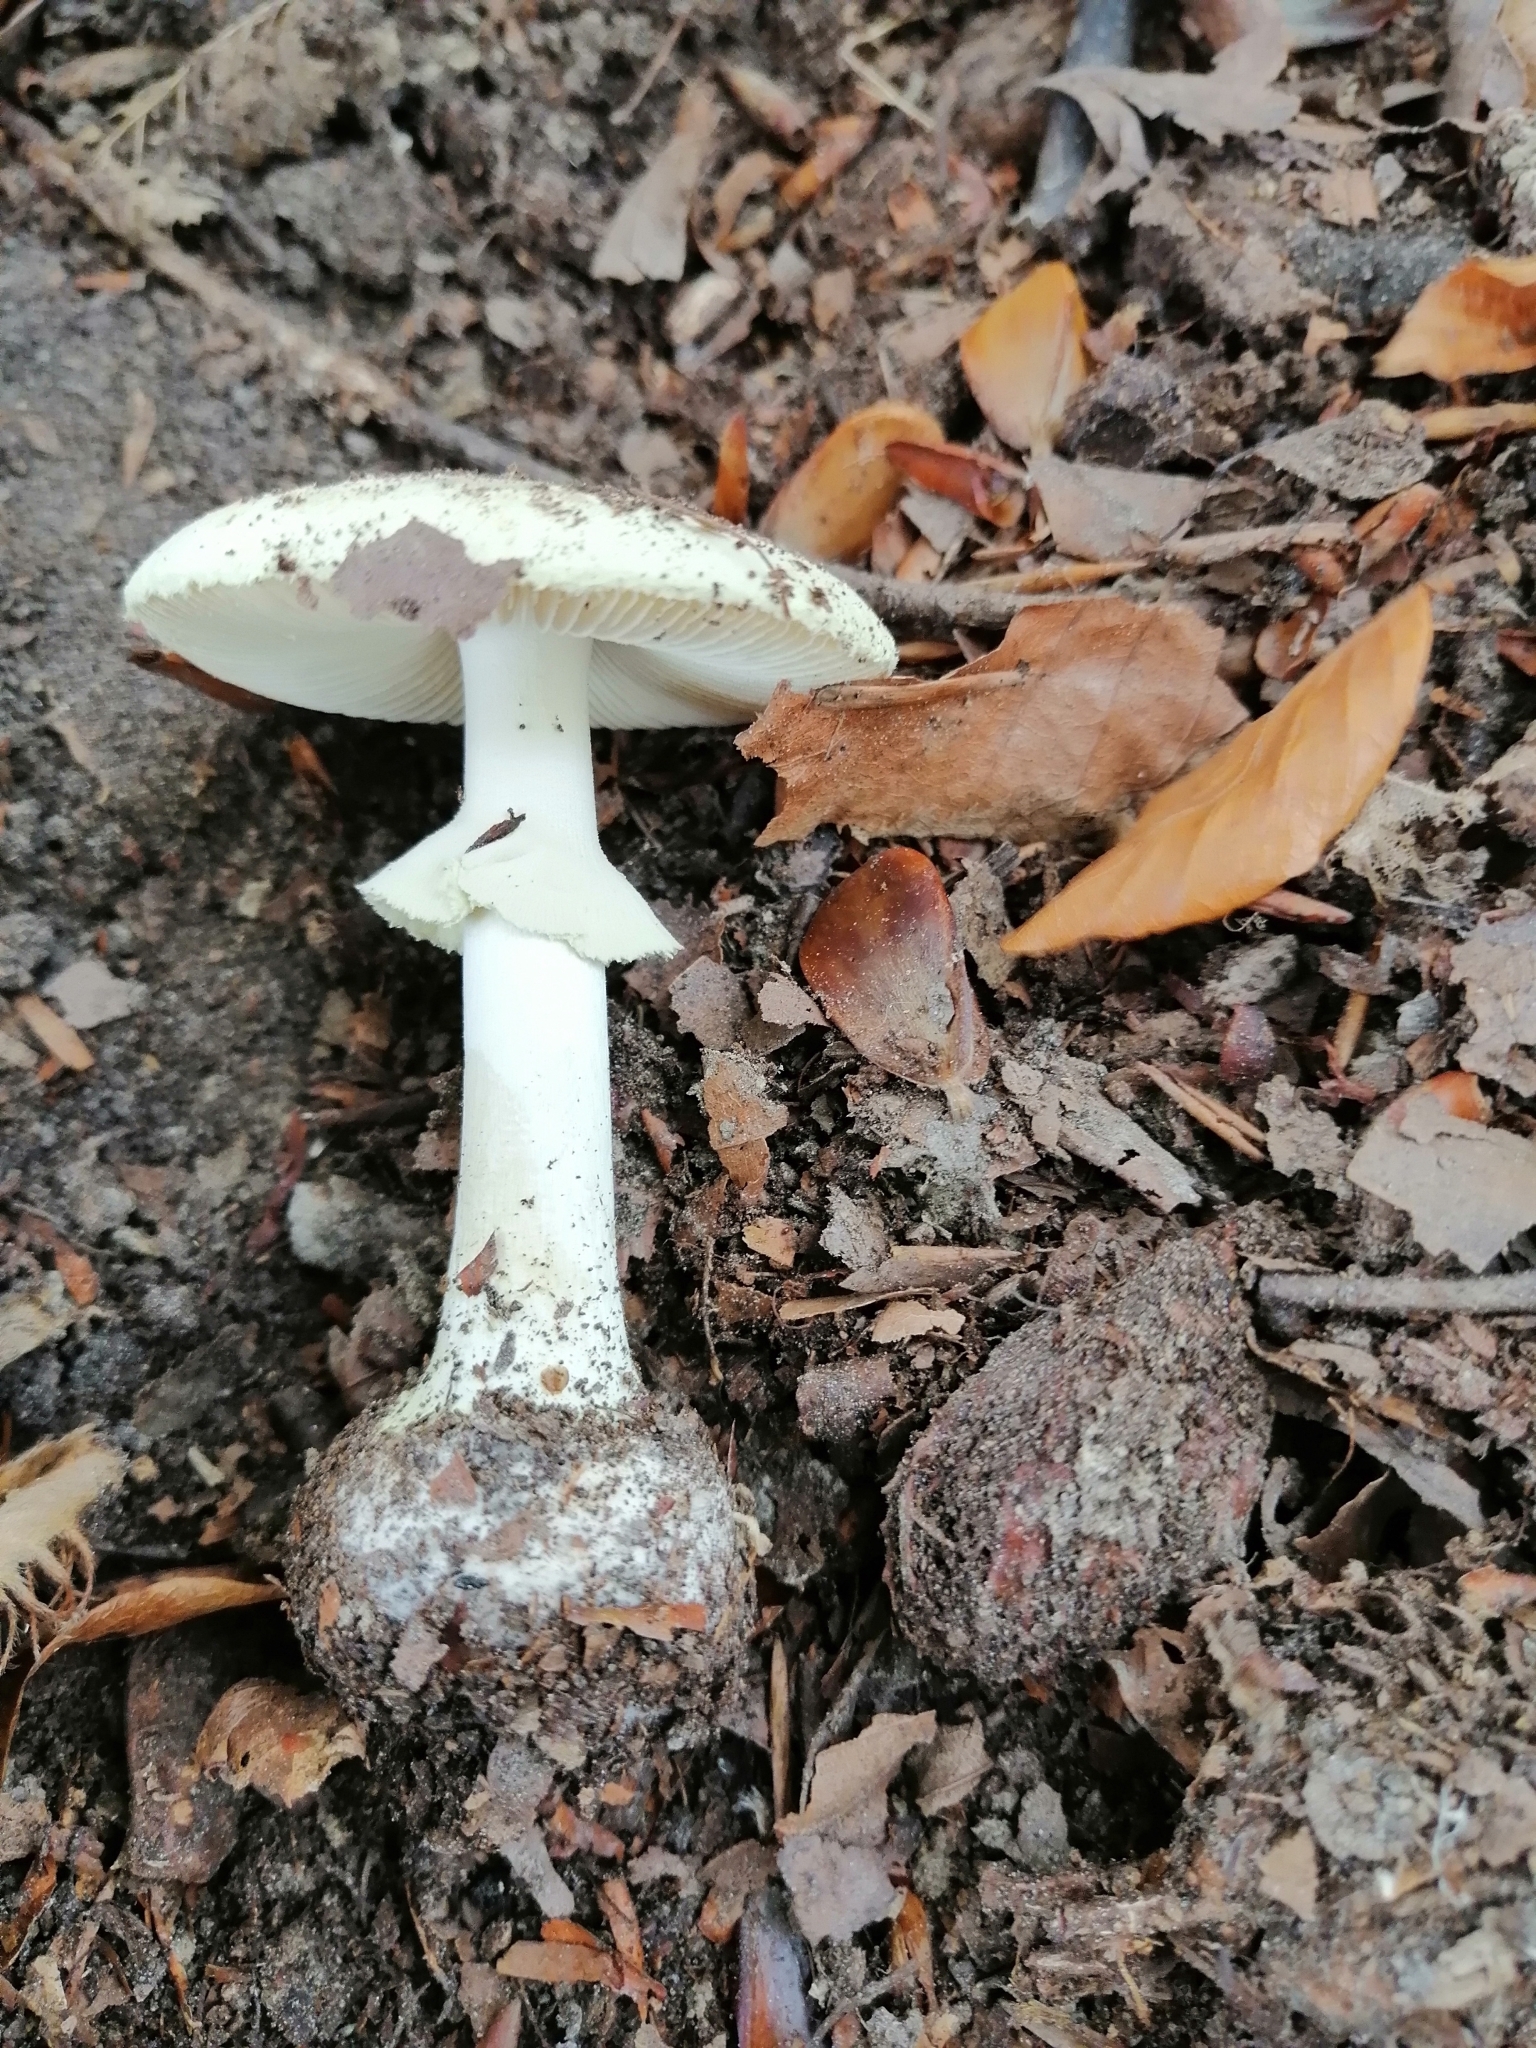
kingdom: Fungi
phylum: Basidiomycota
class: Agaricomycetes
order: Agaricales
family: Amanitaceae
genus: Amanita
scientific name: Amanita citrina
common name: False death-cap
